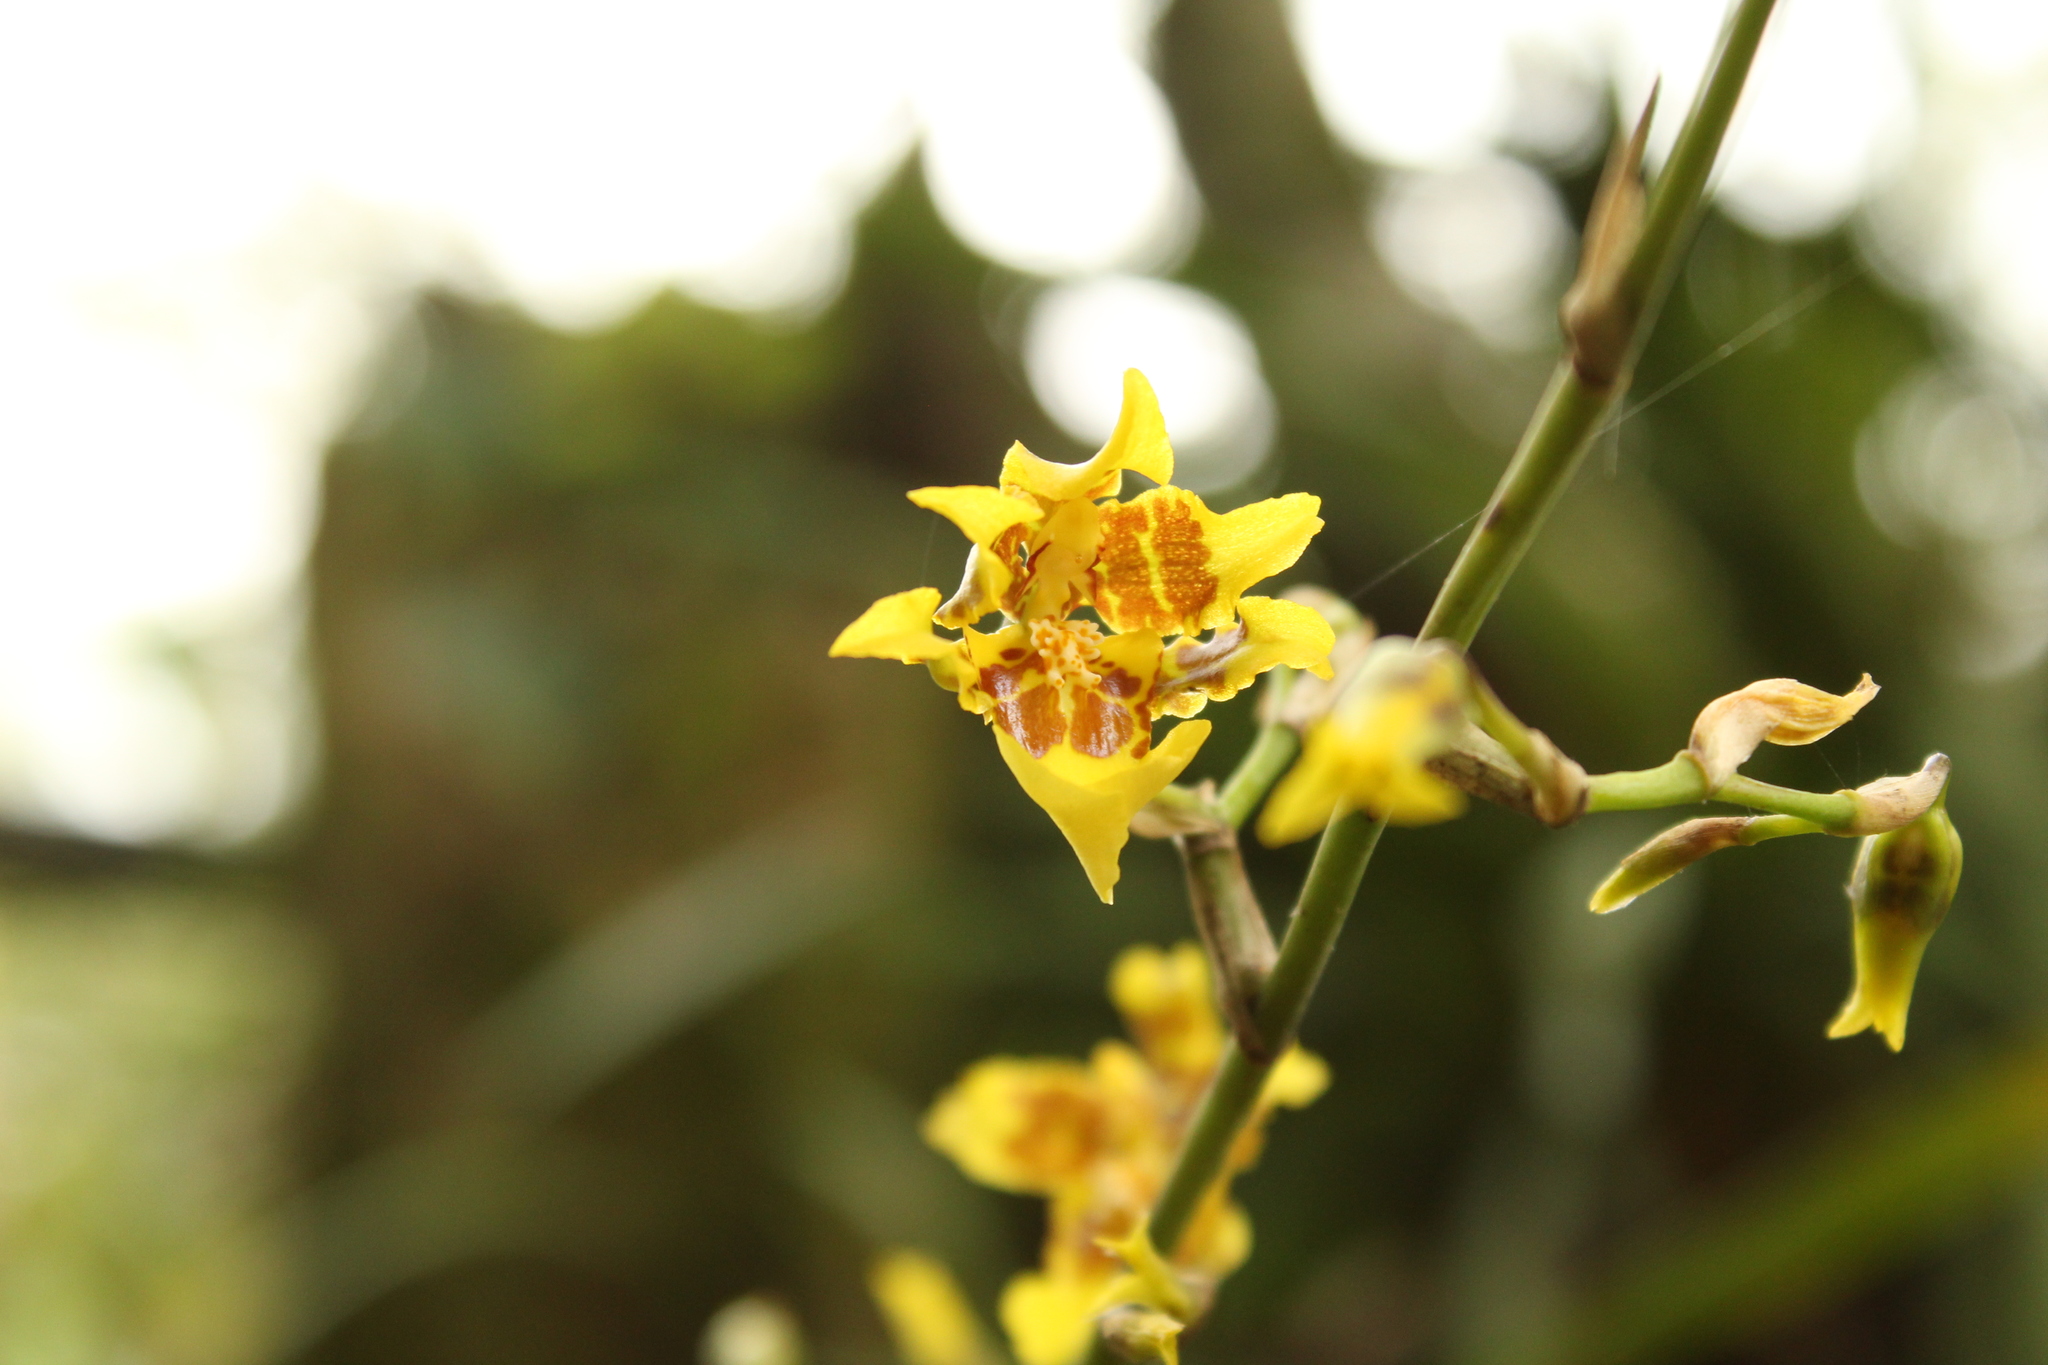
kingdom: Plantae
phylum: Tracheophyta
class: Liliopsida
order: Asparagales
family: Orchidaceae
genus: Oncidium
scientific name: Oncidium sphacelatum
